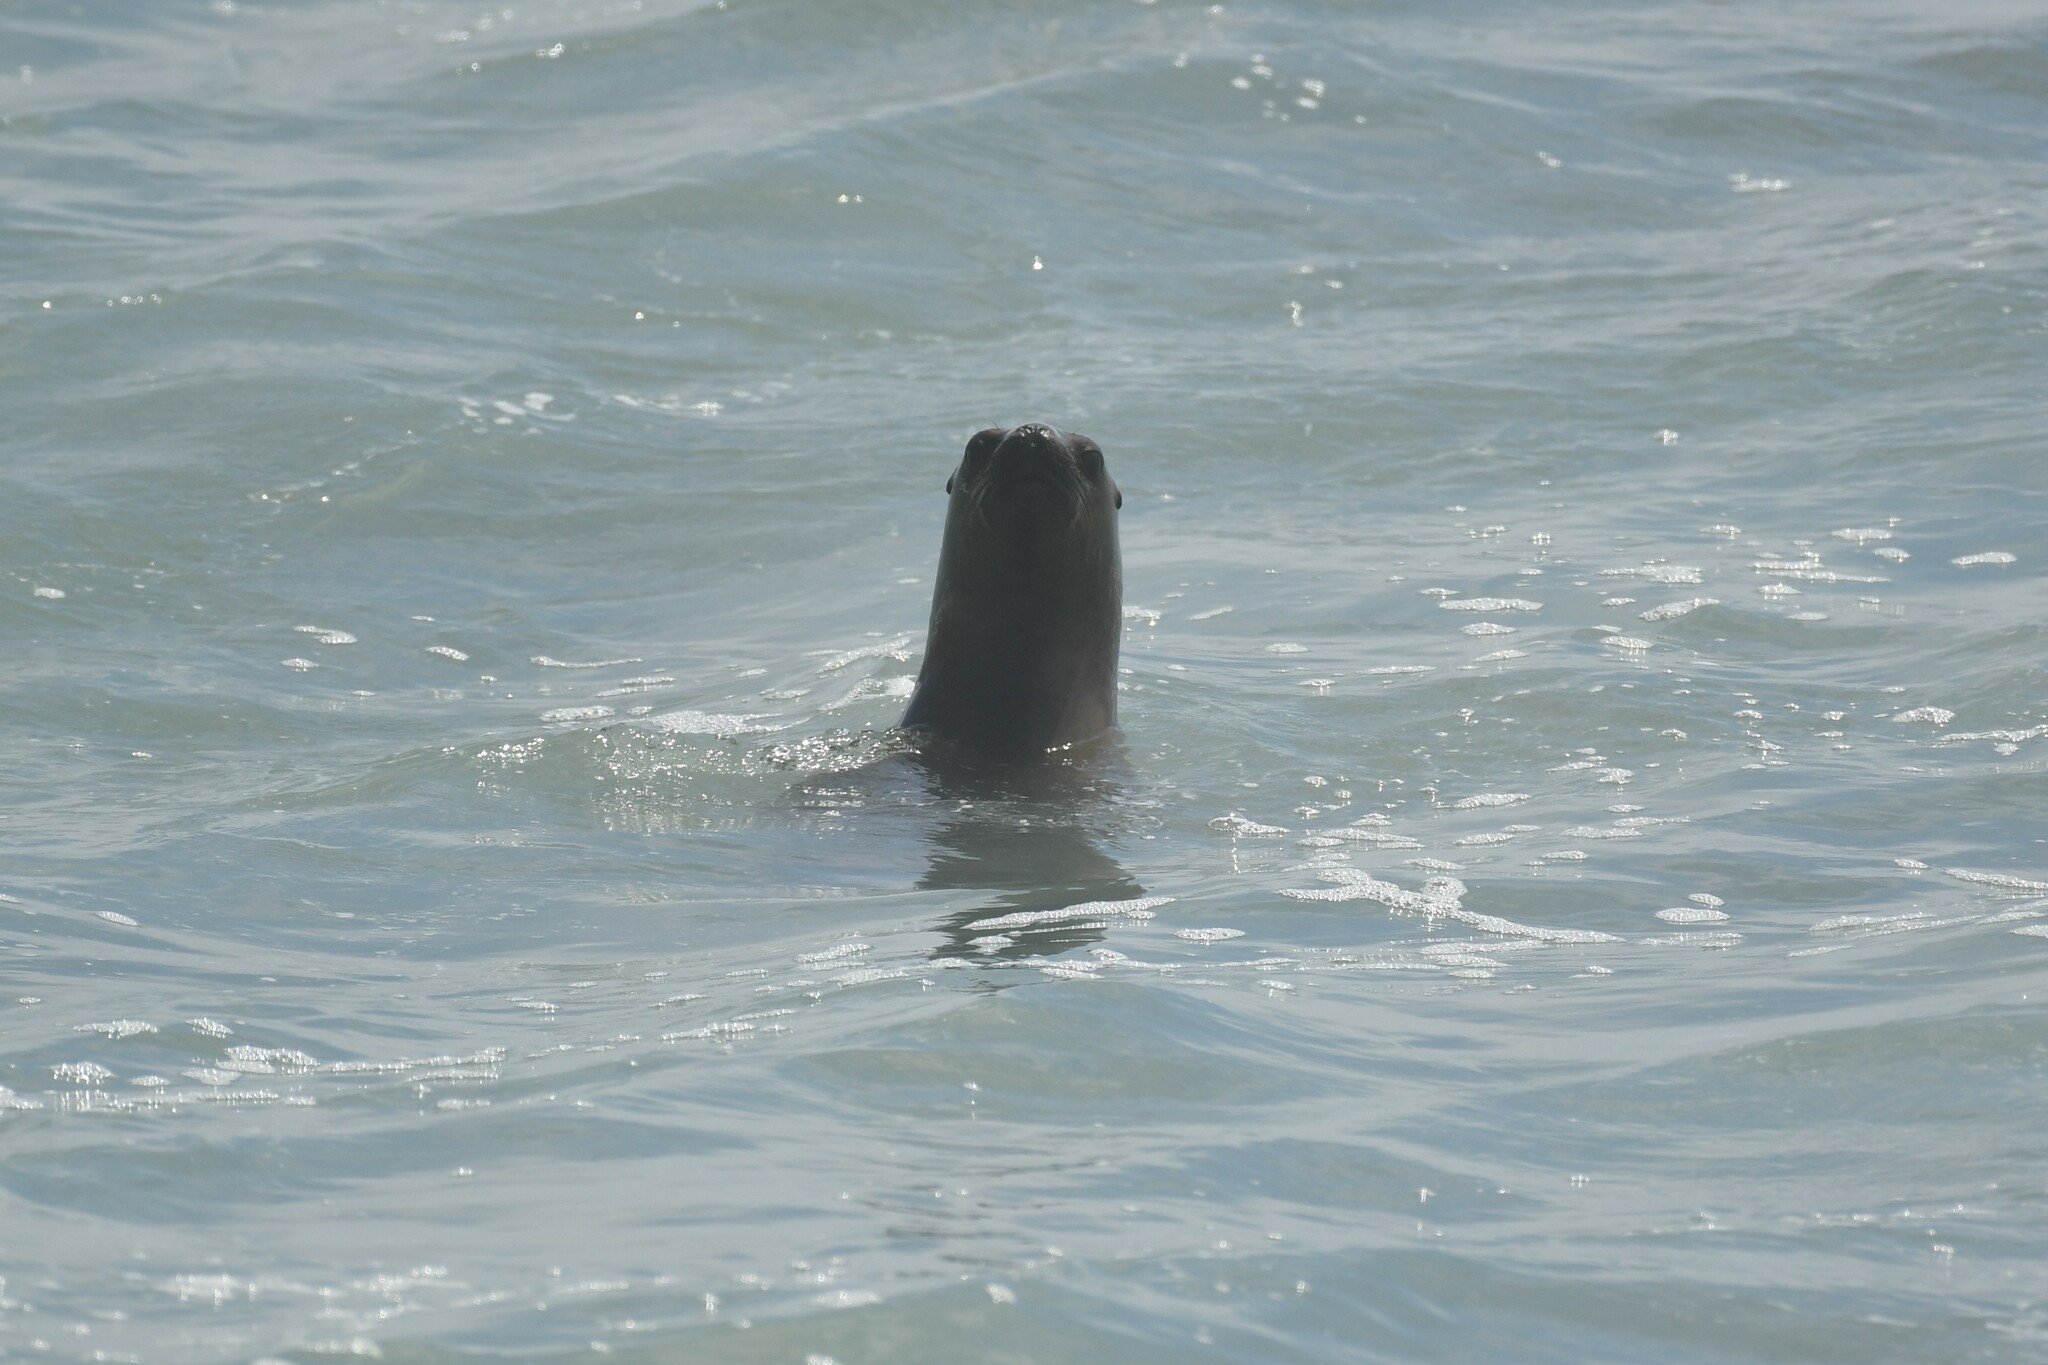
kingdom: Animalia
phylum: Chordata
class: Mammalia
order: Carnivora
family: Otariidae
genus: Otaria
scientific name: Otaria byronia
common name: South american sea lion
